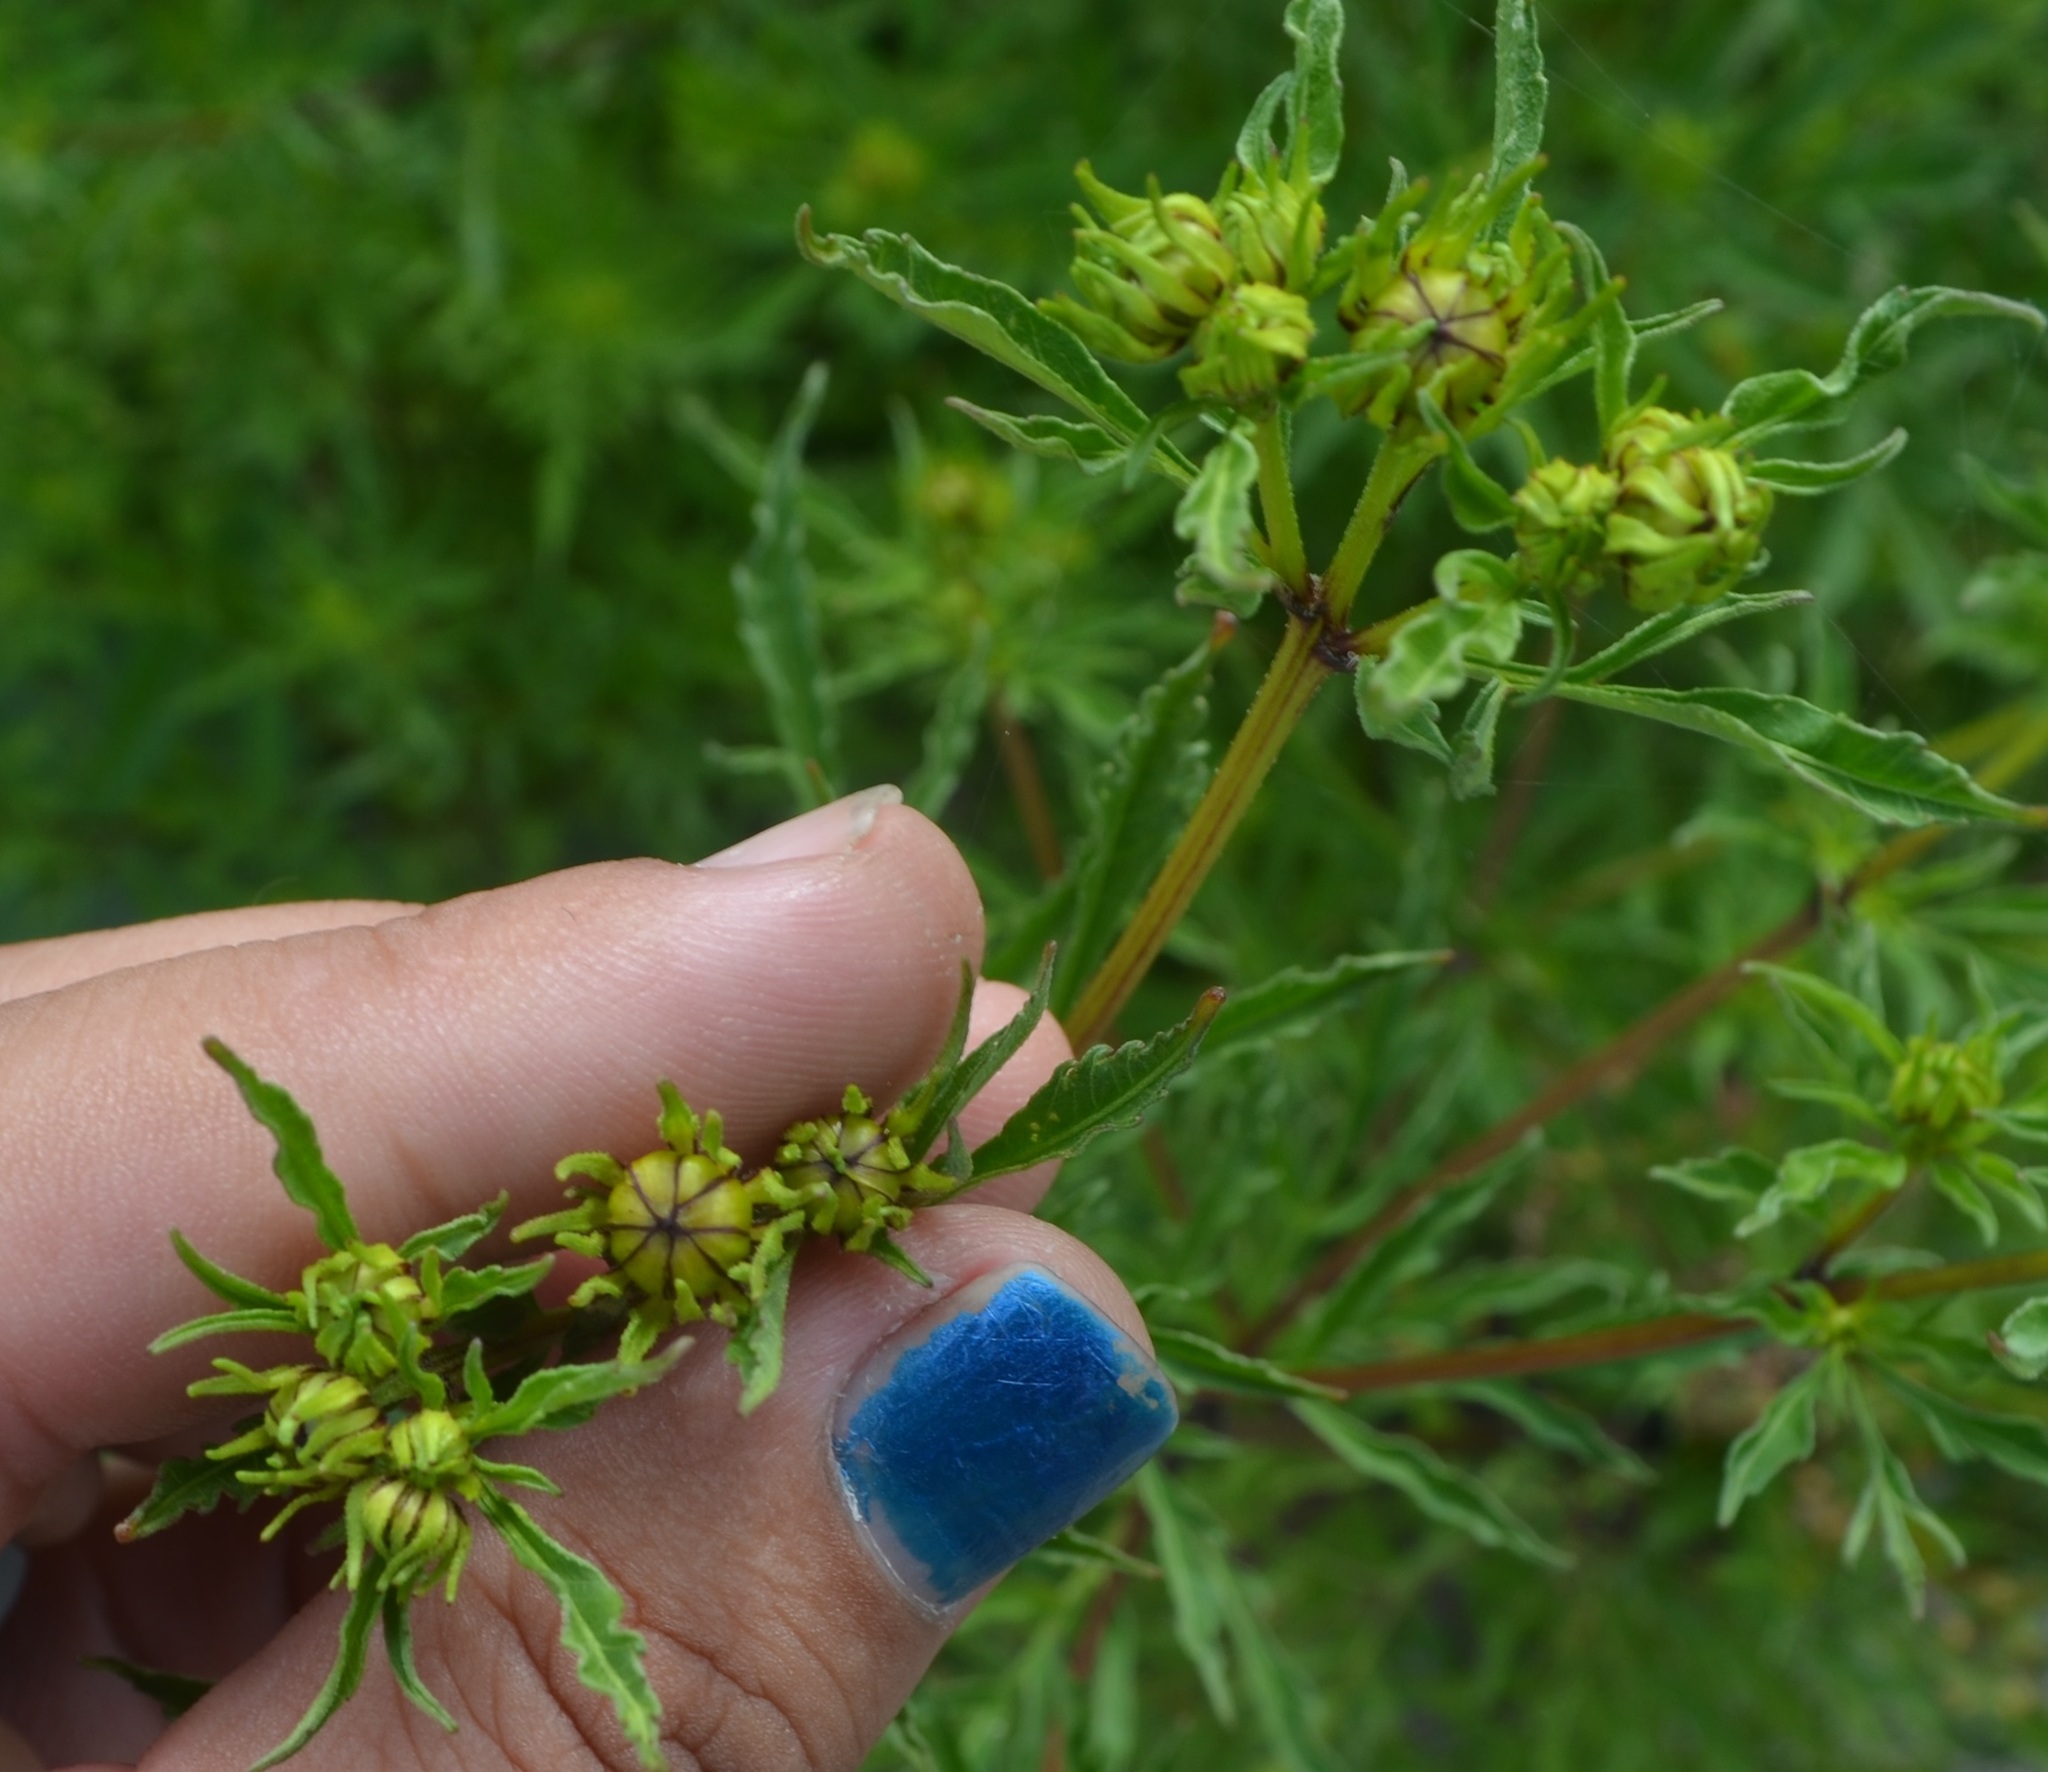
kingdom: Plantae
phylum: Tracheophyta
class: Magnoliopsida
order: Asterales
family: Asteraceae
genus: Bidens
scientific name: Bidens polylepis
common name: Awnless beggarticks
